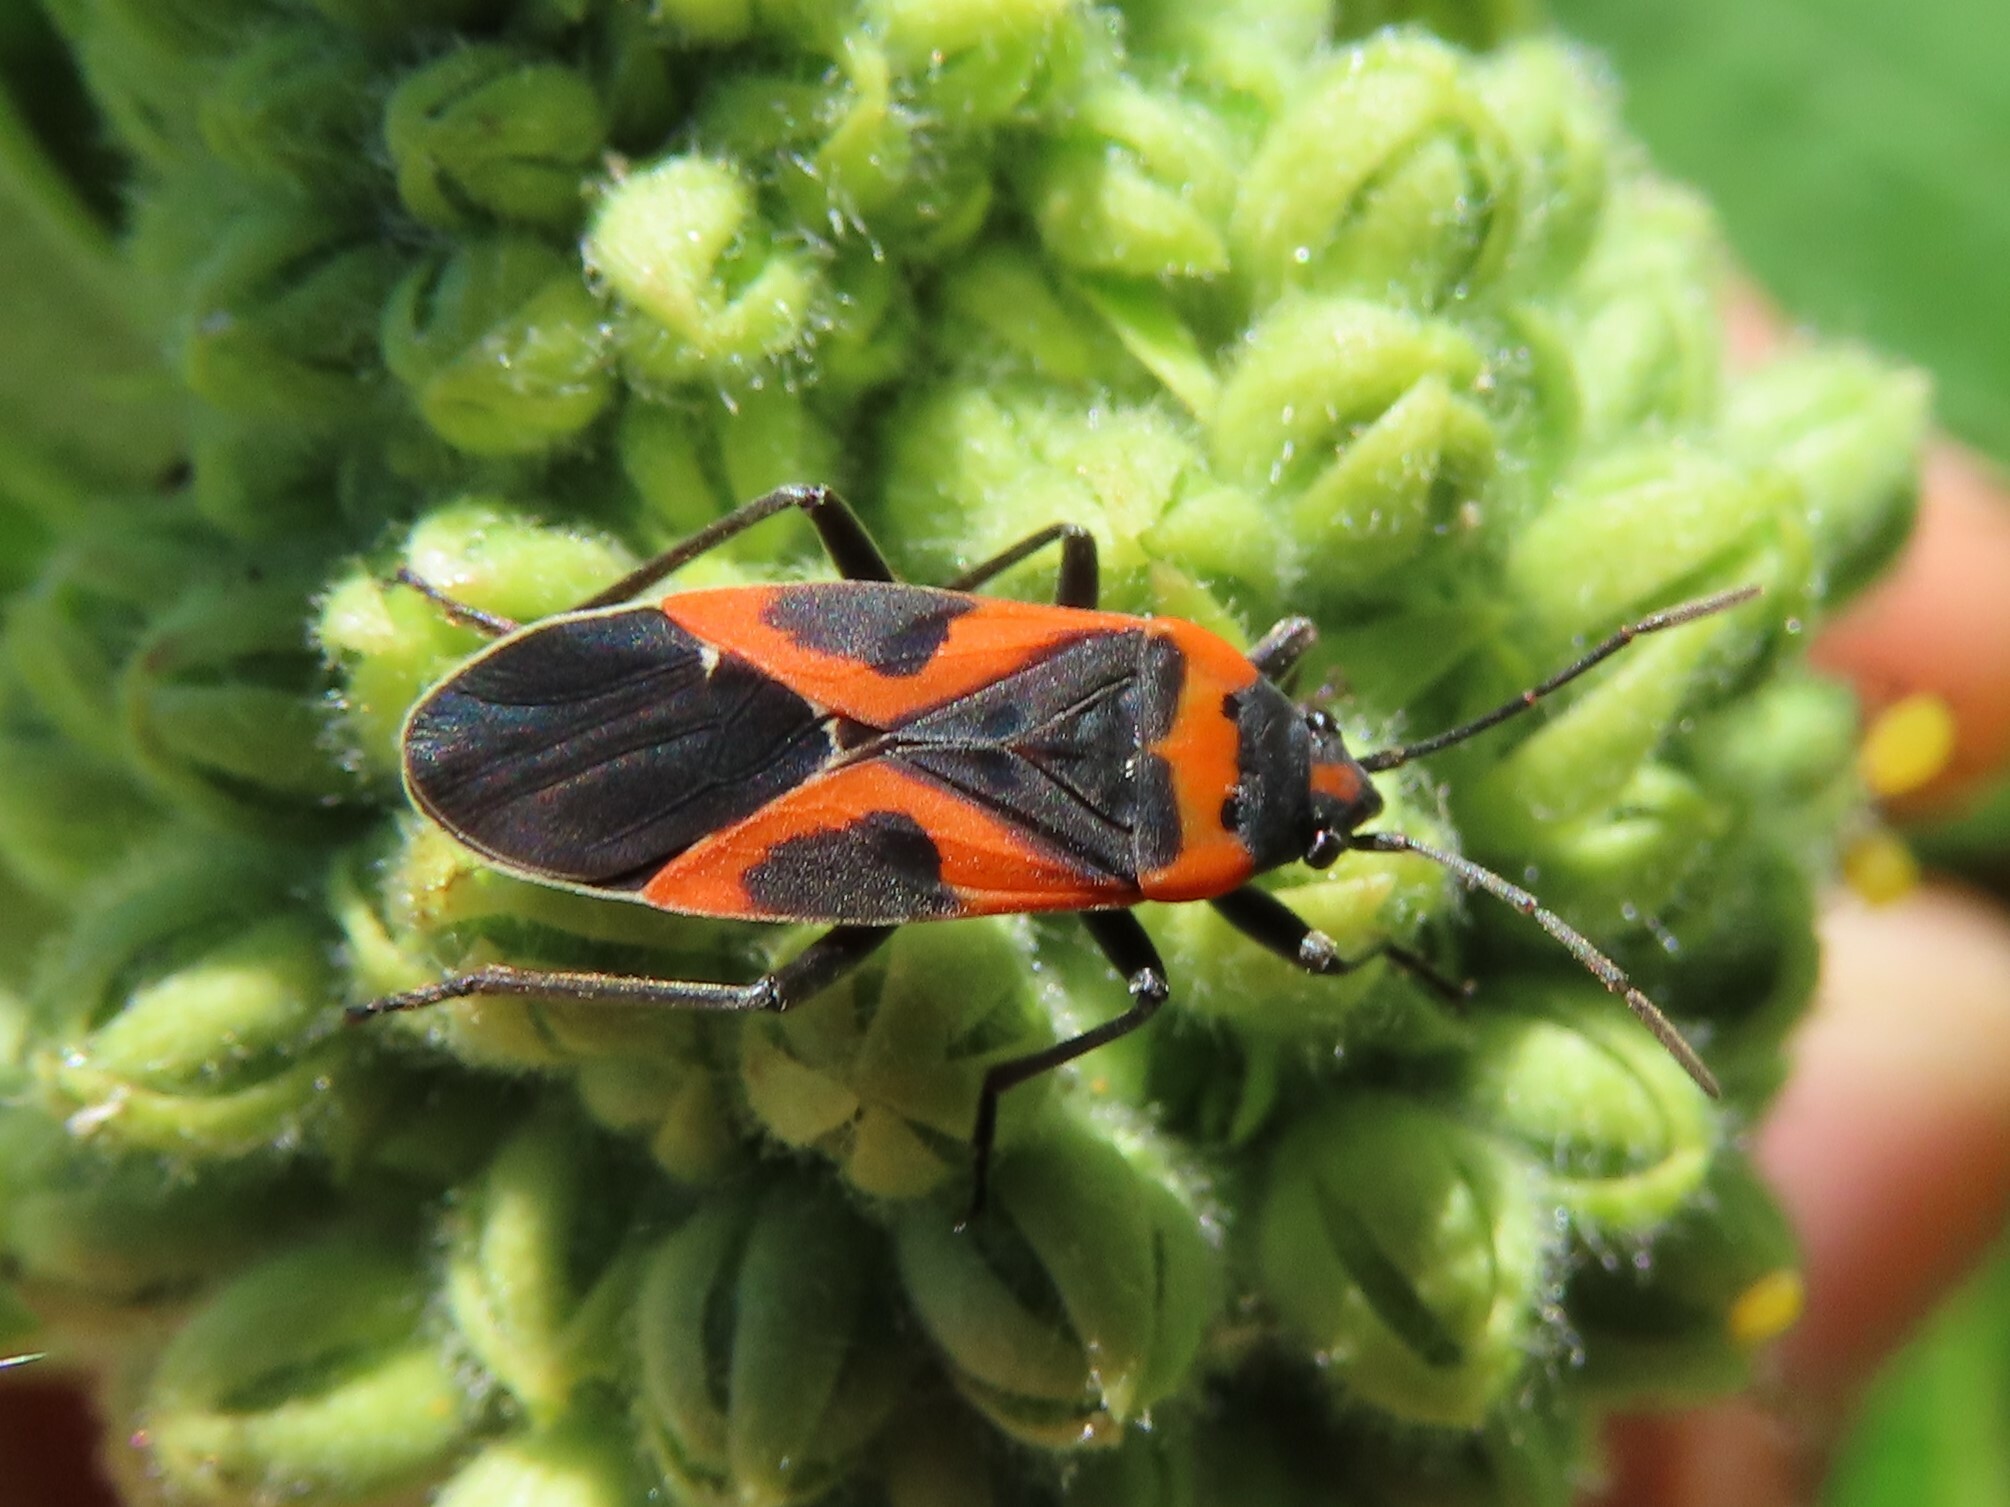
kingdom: Animalia
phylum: Arthropoda
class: Insecta
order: Hemiptera
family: Lygaeidae
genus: Lygaeus
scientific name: Lygaeus kalmii
